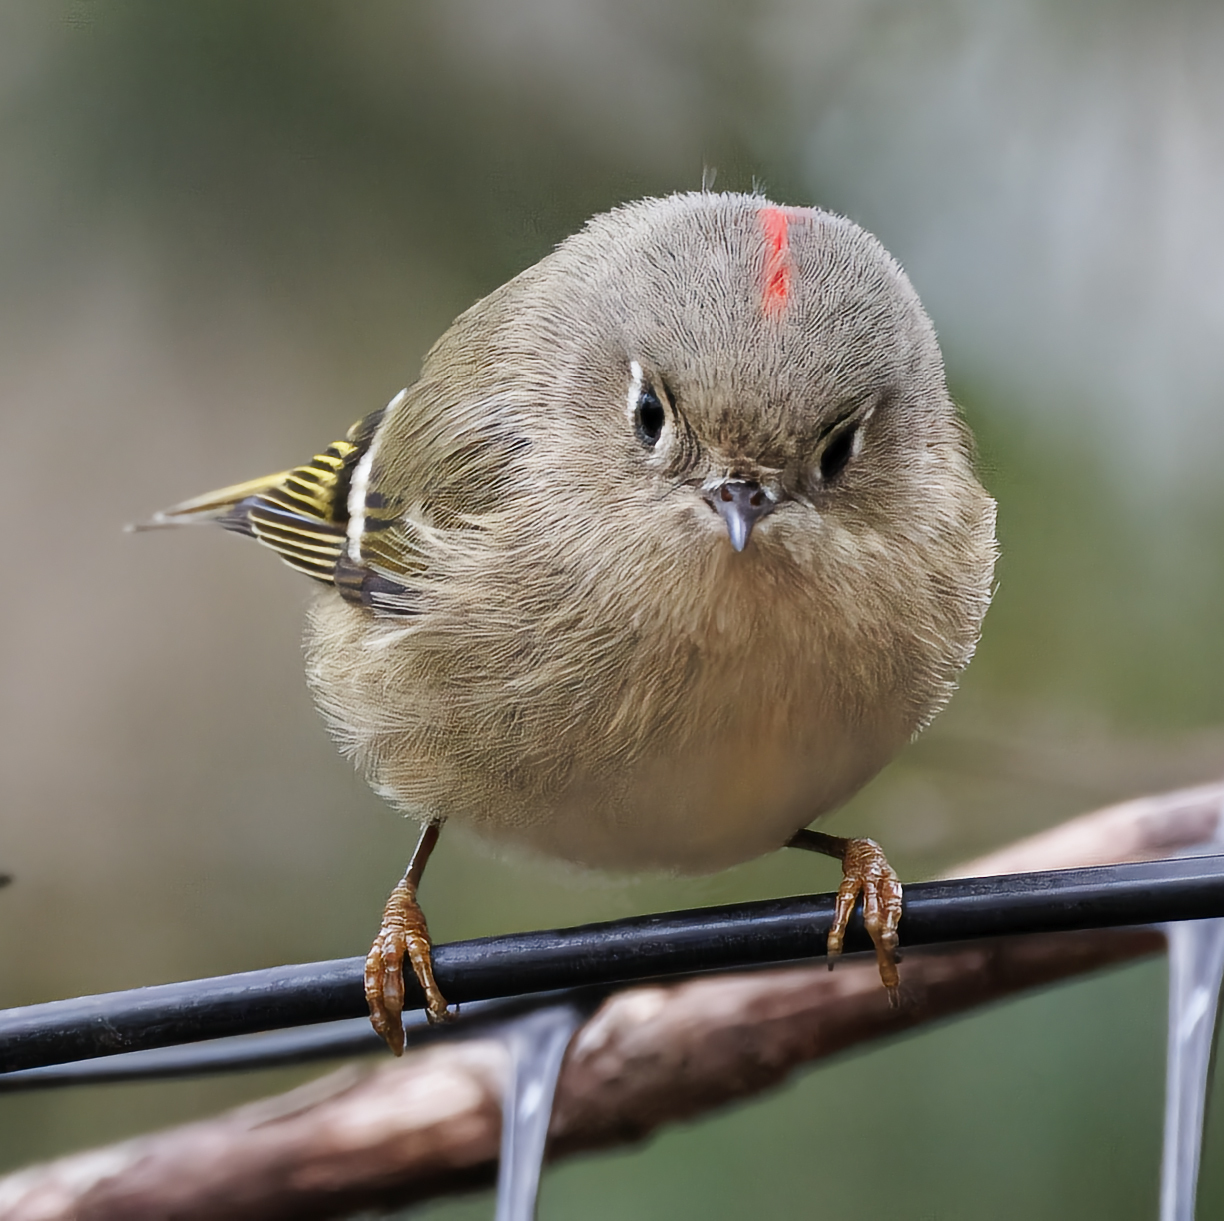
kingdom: Animalia
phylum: Chordata
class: Aves
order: Passeriformes
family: Regulidae
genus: Regulus
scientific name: Regulus calendula
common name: Ruby-crowned kinglet
